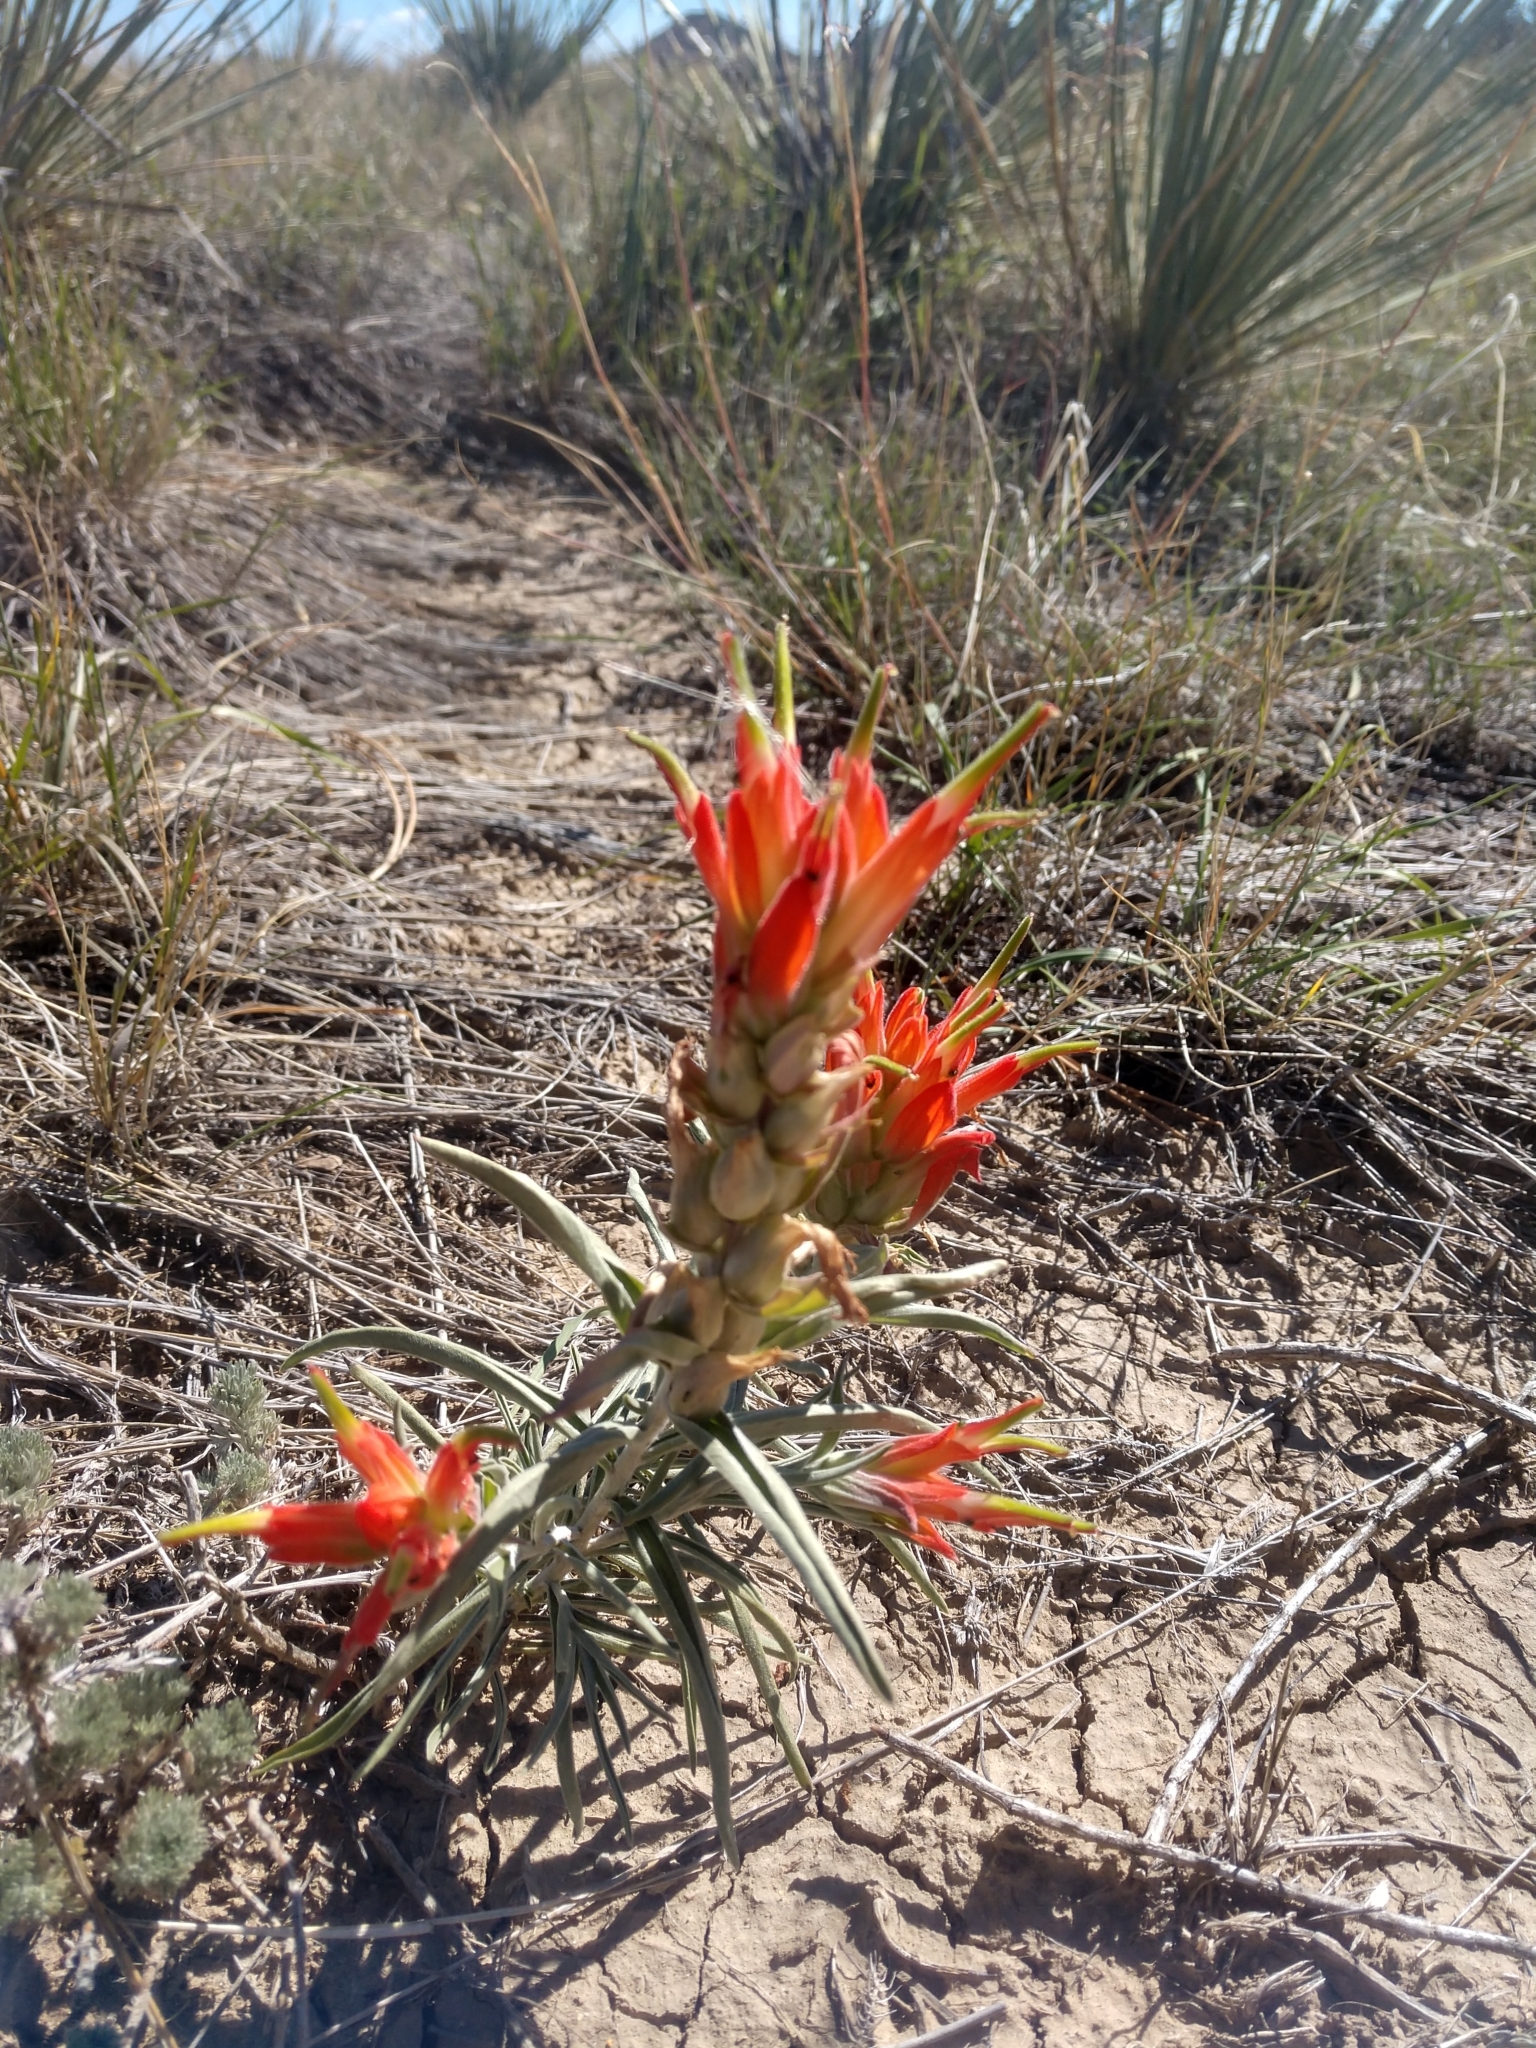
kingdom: Plantae
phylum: Tracheophyta
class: Magnoliopsida
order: Lamiales
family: Orobanchaceae
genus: Castilleja
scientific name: Castilleja integra
